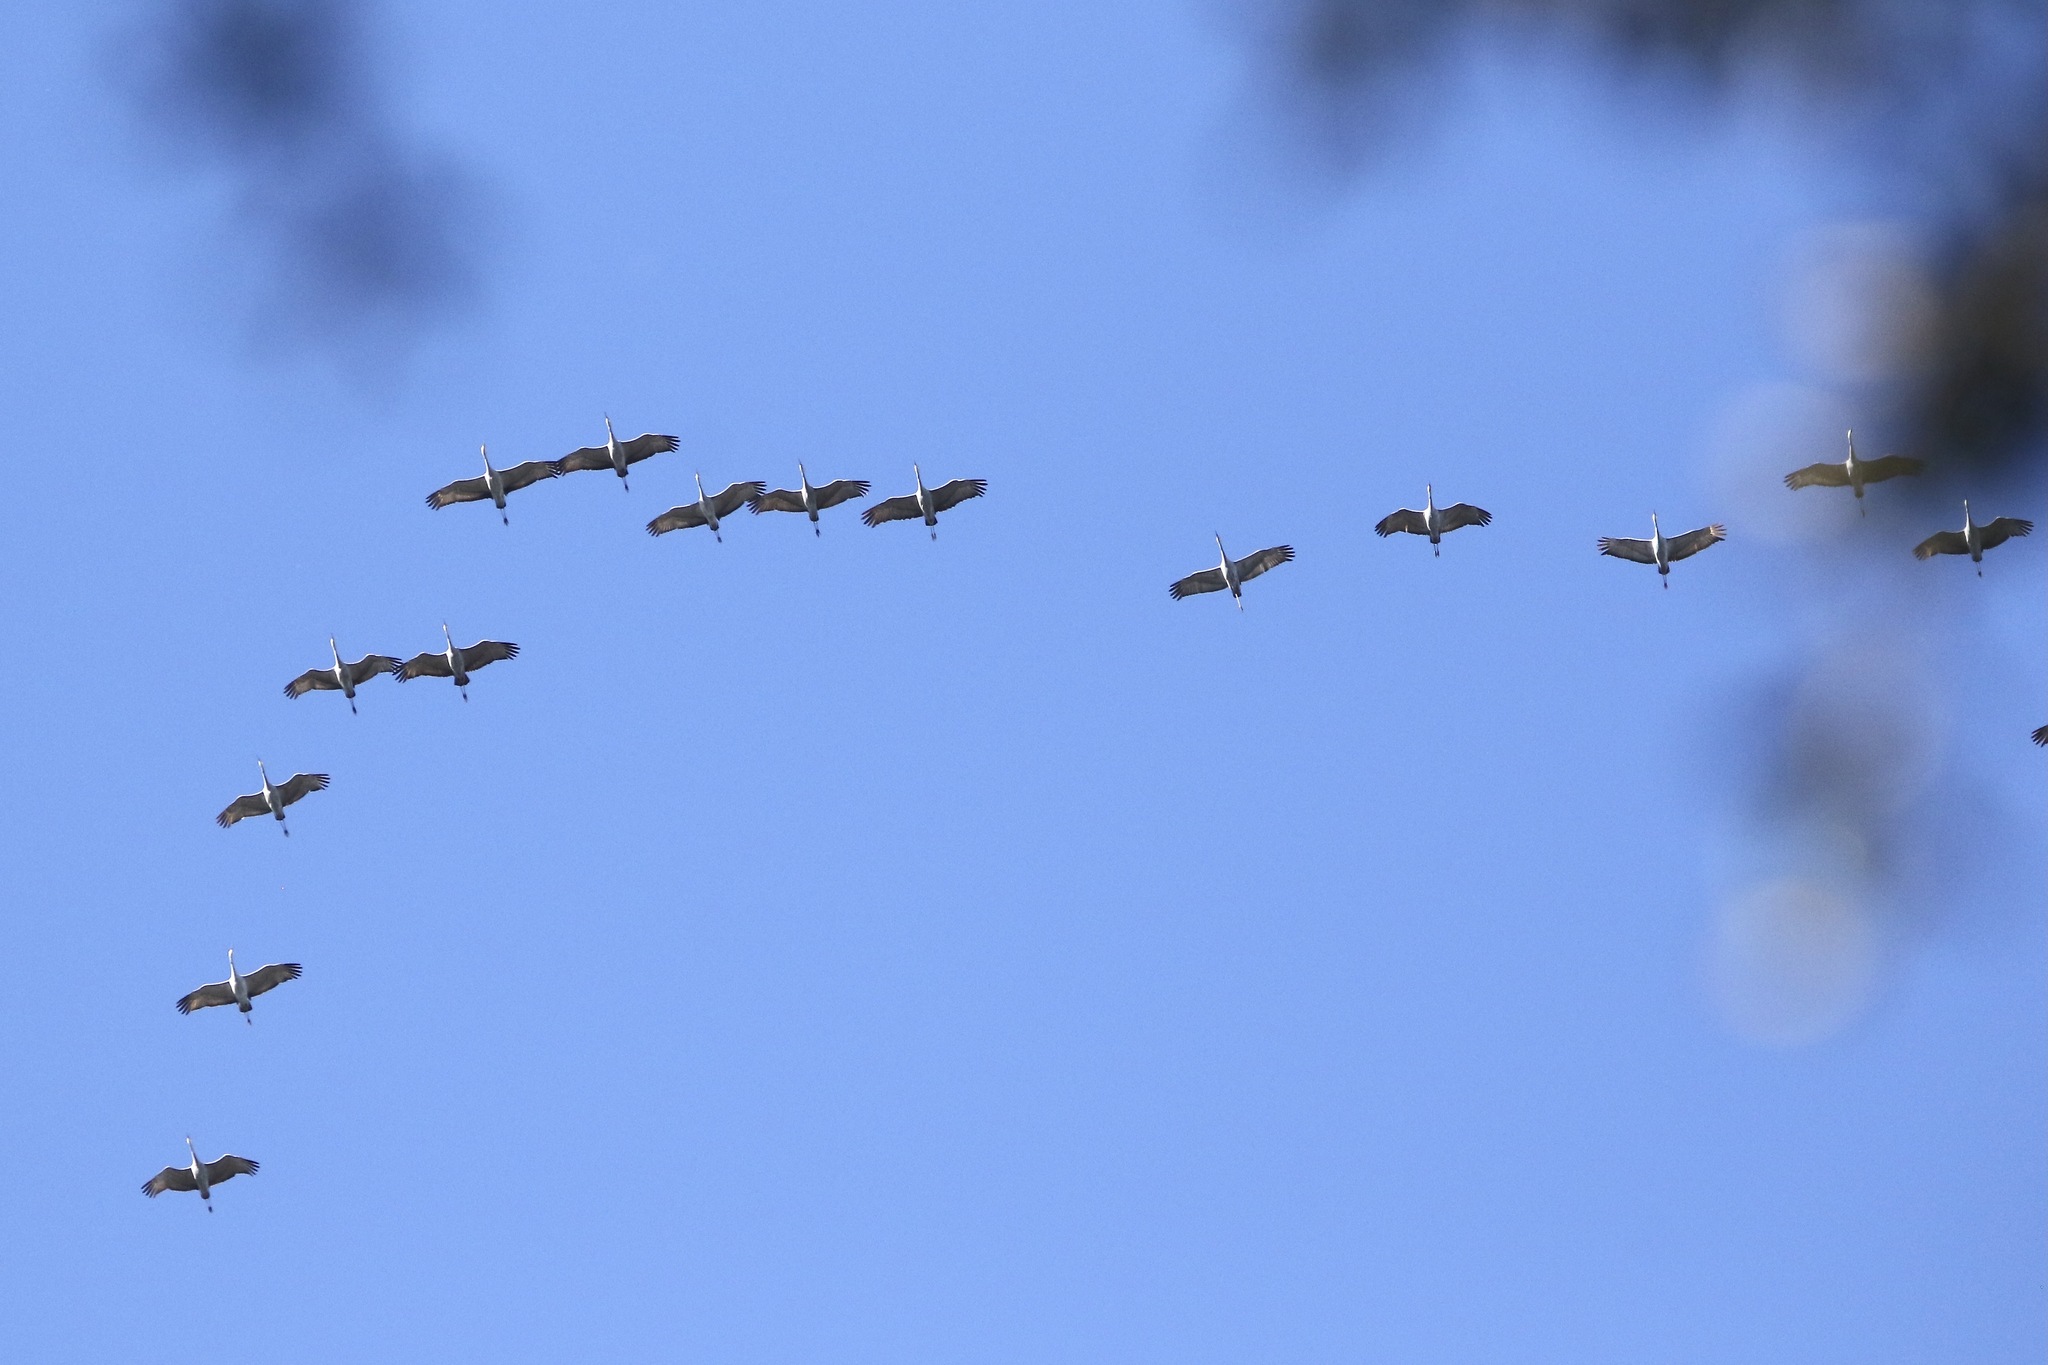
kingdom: Animalia
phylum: Chordata
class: Aves
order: Gruiformes
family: Gruidae
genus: Grus
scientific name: Grus canadensis
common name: Sandhill crane
